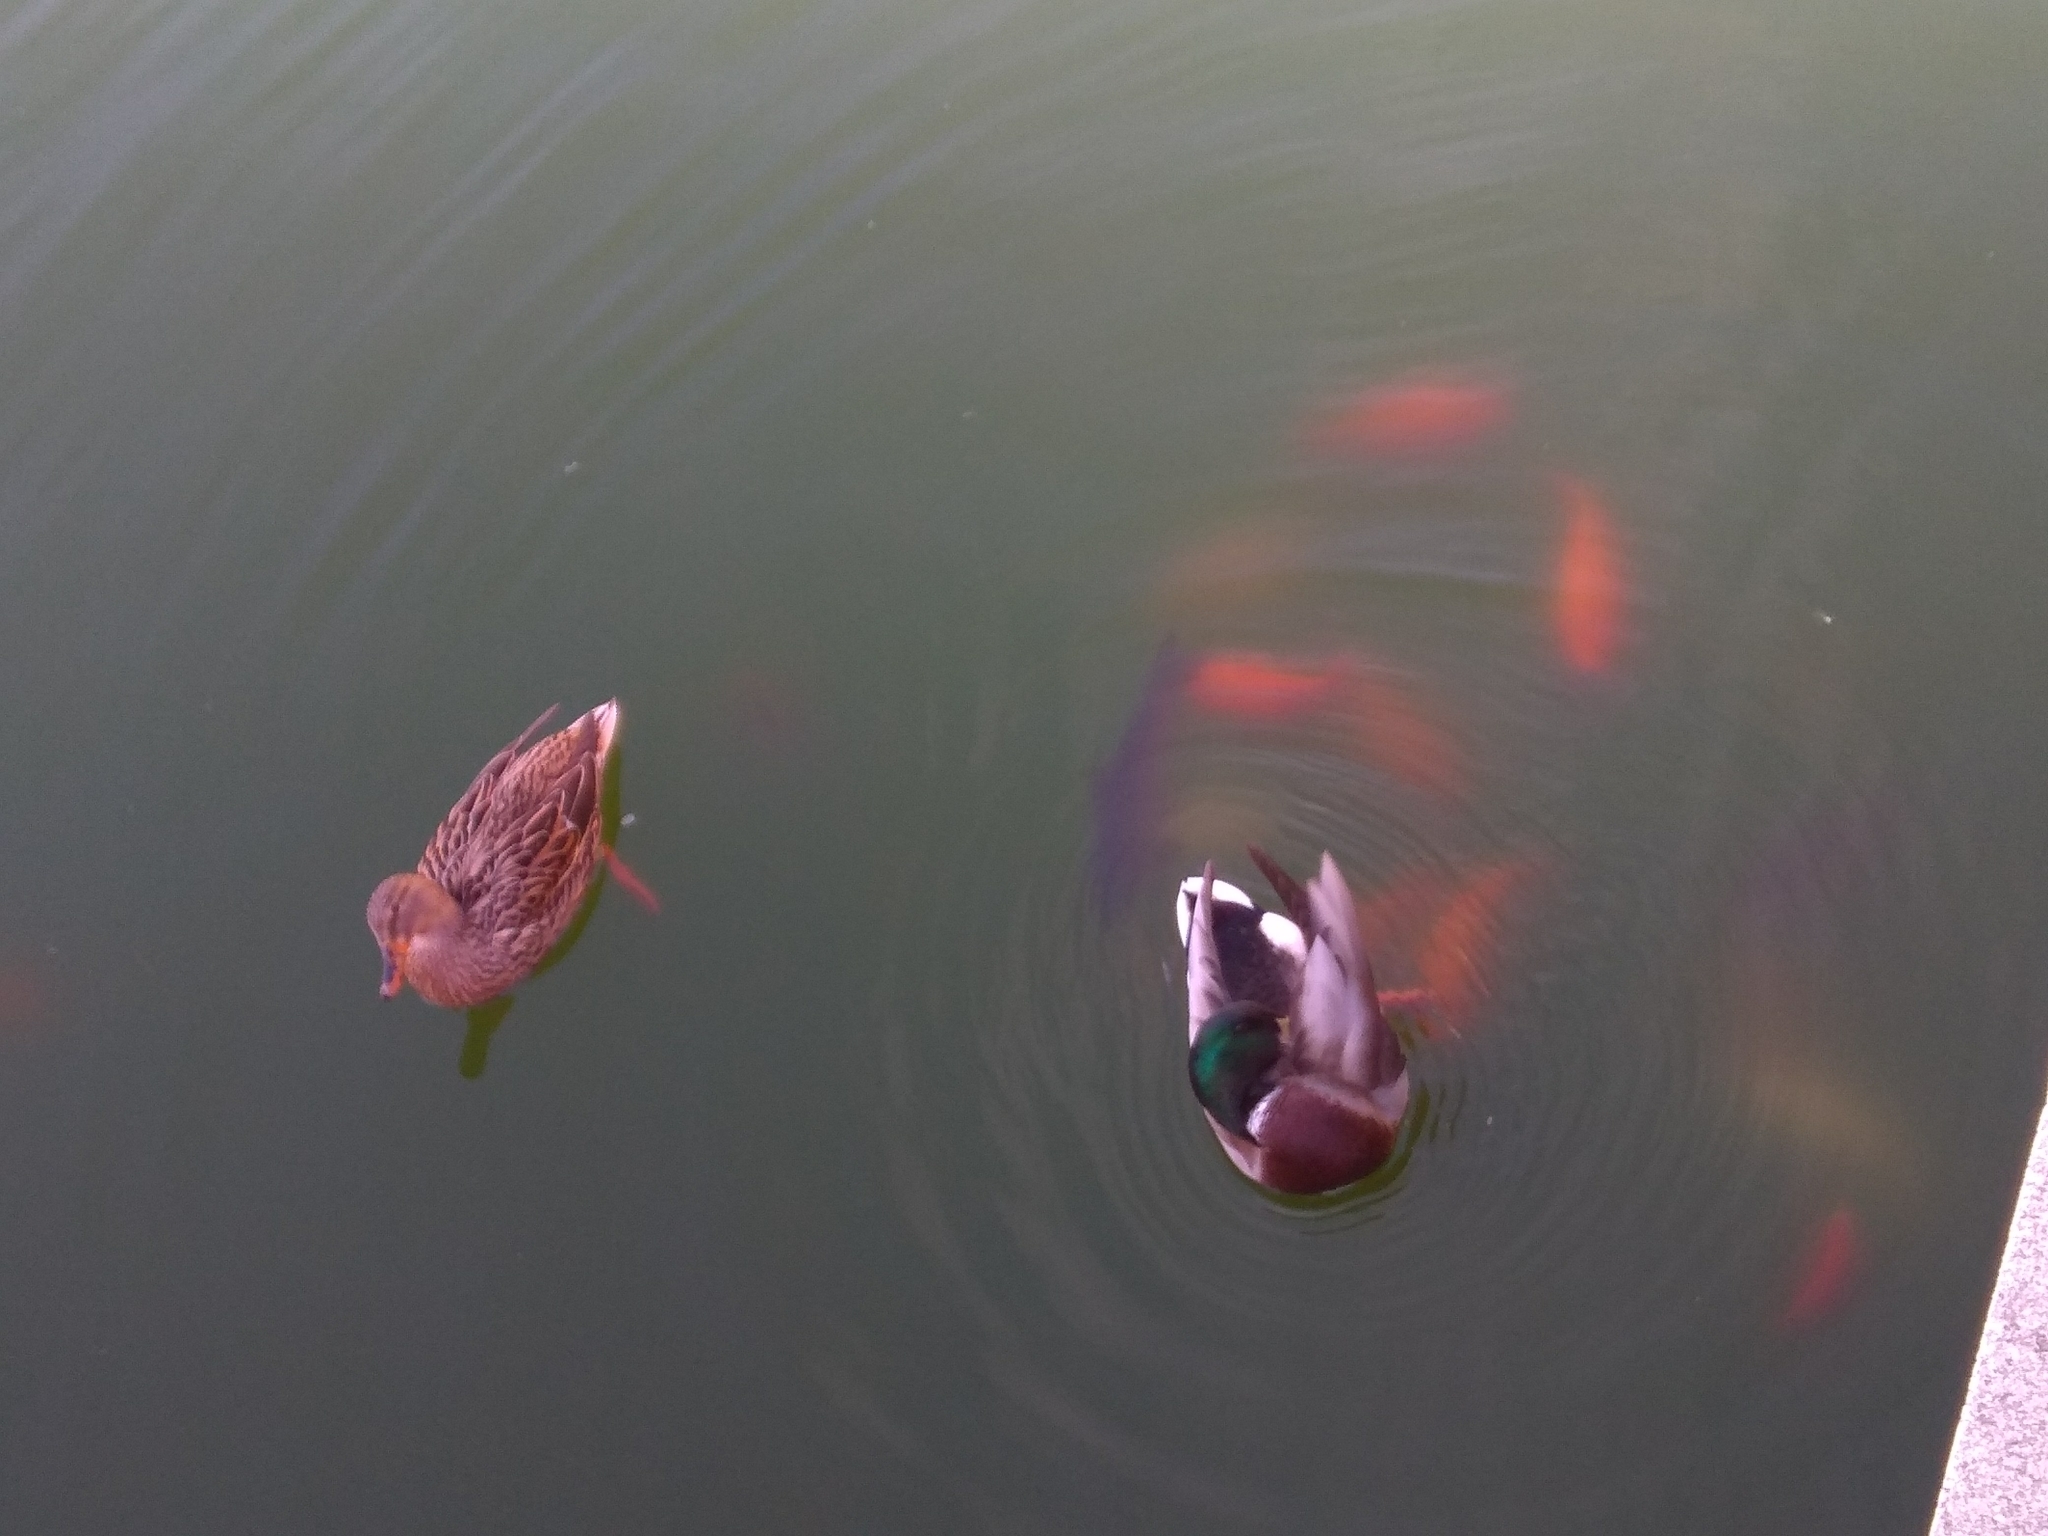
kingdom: Animalia
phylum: Chordata
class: Aves
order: Anseriformes
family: Anatidae
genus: Anas
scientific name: Anas platyrhynchos
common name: Mallard
